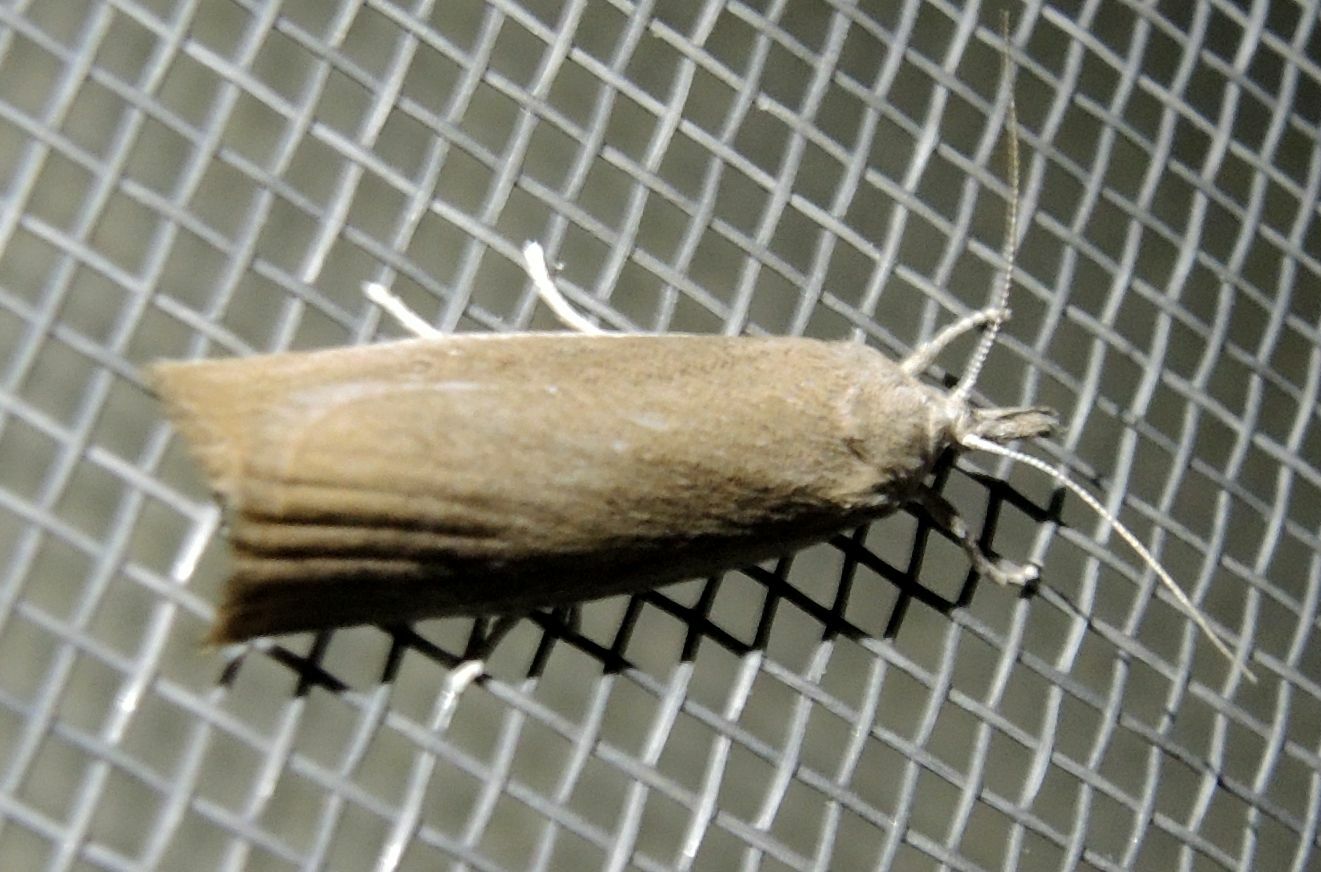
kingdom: Animalia
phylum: Arthropoda
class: Insecta
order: Lepidoptera
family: Crambidae
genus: Calamotropha
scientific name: Calamotropha paludella
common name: Bulrush veneer
